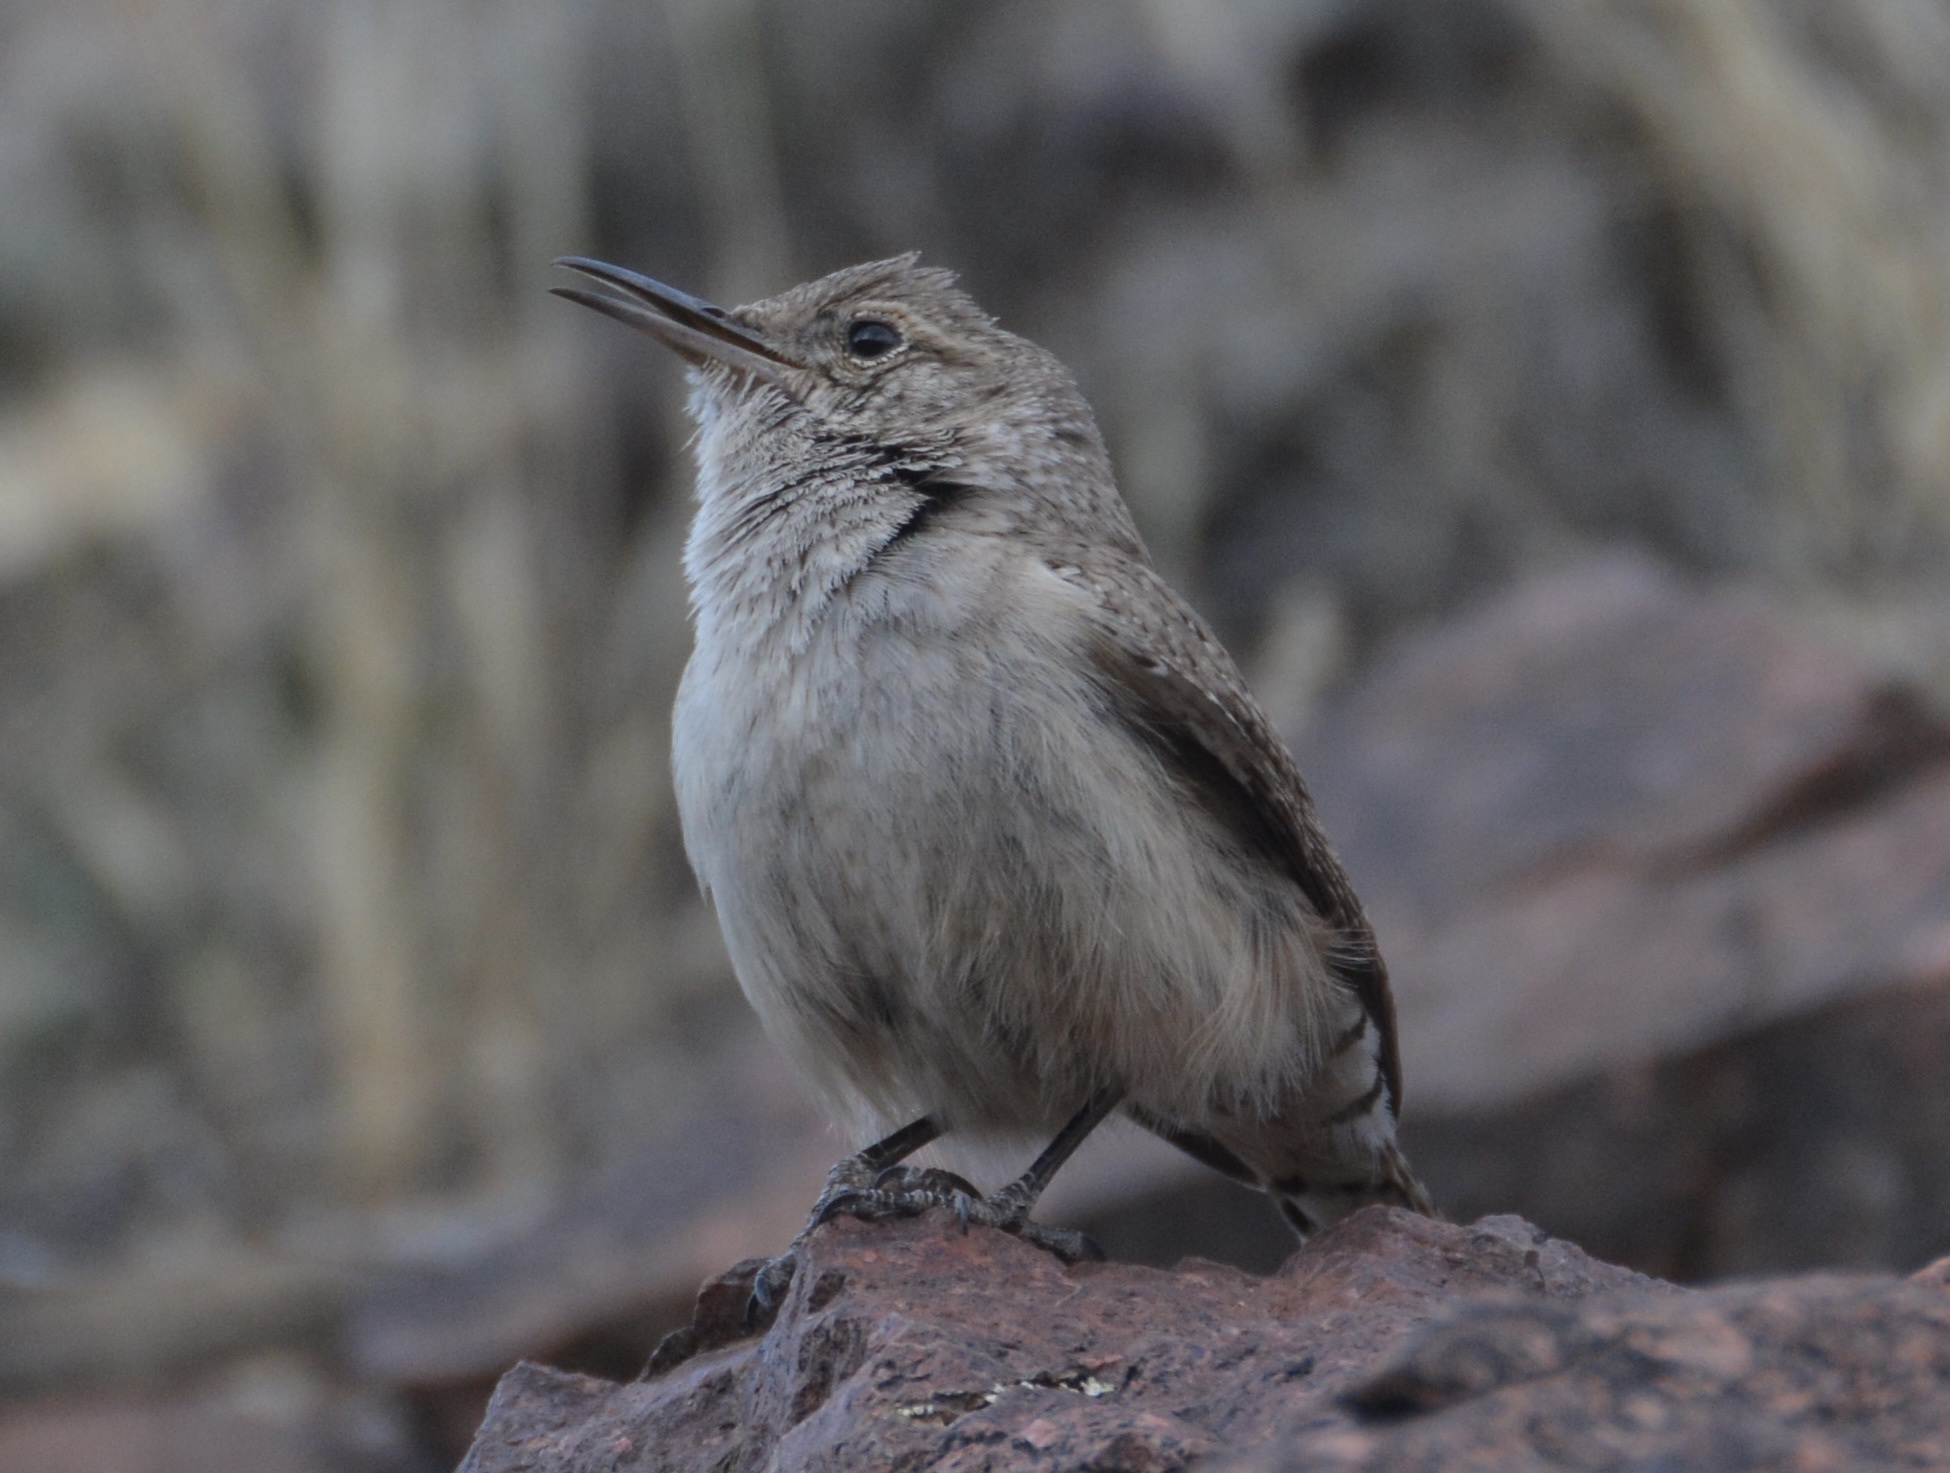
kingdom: Animalia
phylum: Chordata
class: Aves
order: Passeriformes
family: Troglodytidae
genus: Salpinctes
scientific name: Salpinctes obsoletus
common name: Rock wren
